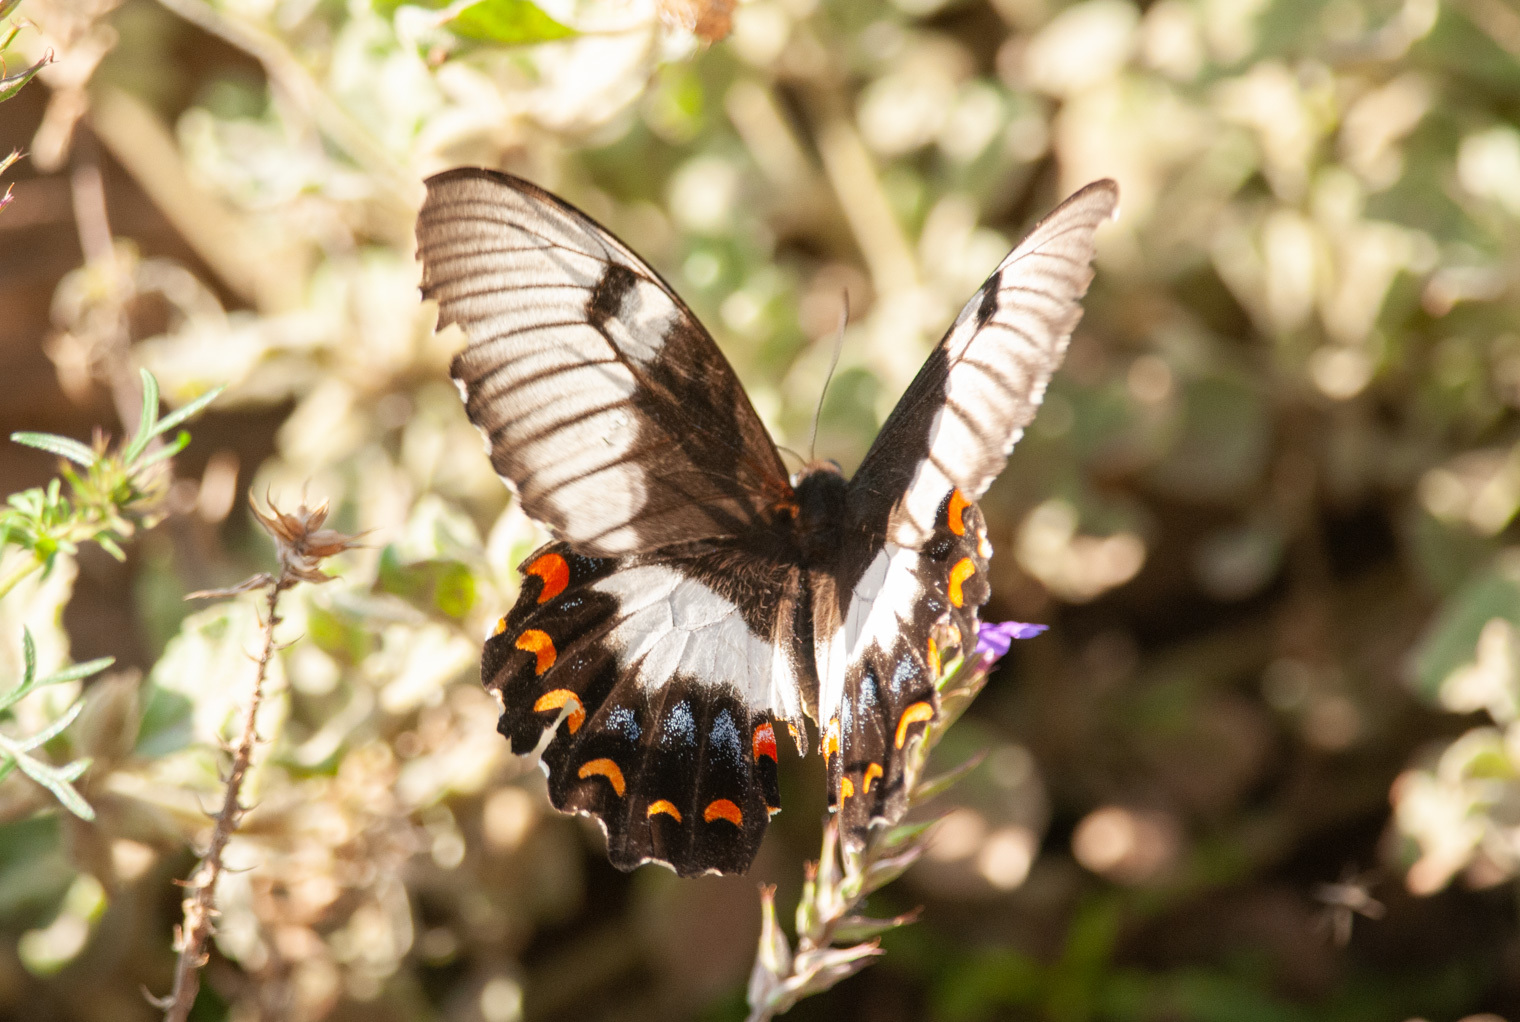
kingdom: Animalia
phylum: Arthropoda
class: Insecta
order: Lepidoptera
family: Papilionidae
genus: Papilio
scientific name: Papilio aegeus
